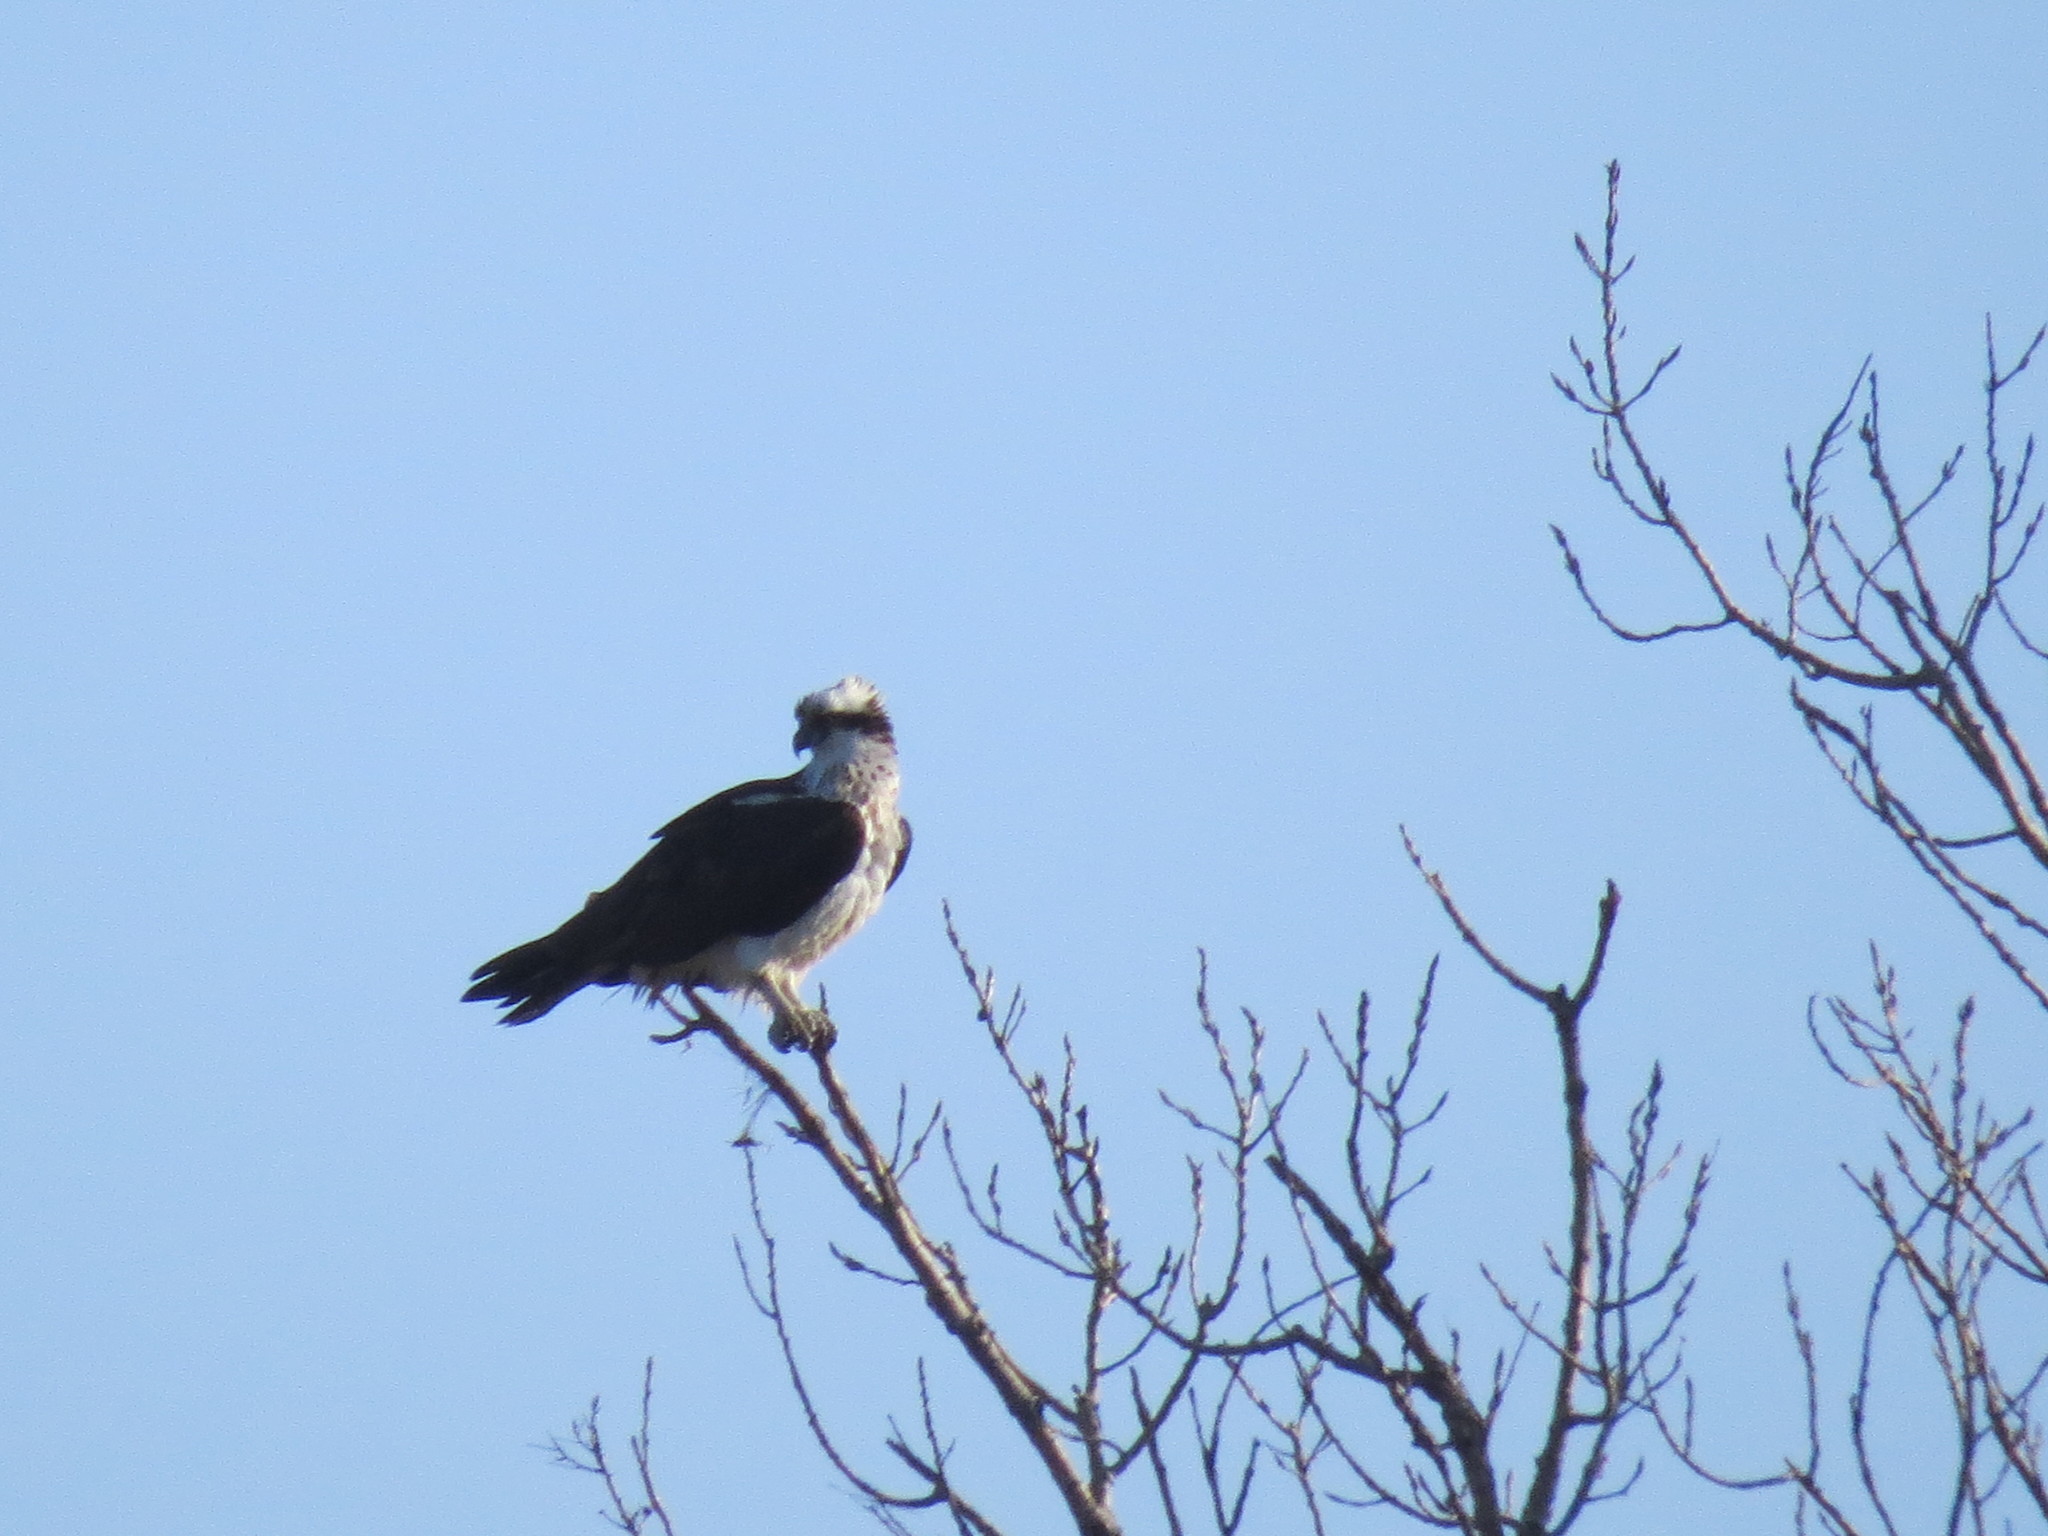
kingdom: Animalia
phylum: Chordata
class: Aves
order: Accipitriformes
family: Pandionidae
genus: Pandion
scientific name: Pandion haliaetus
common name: Osprey
